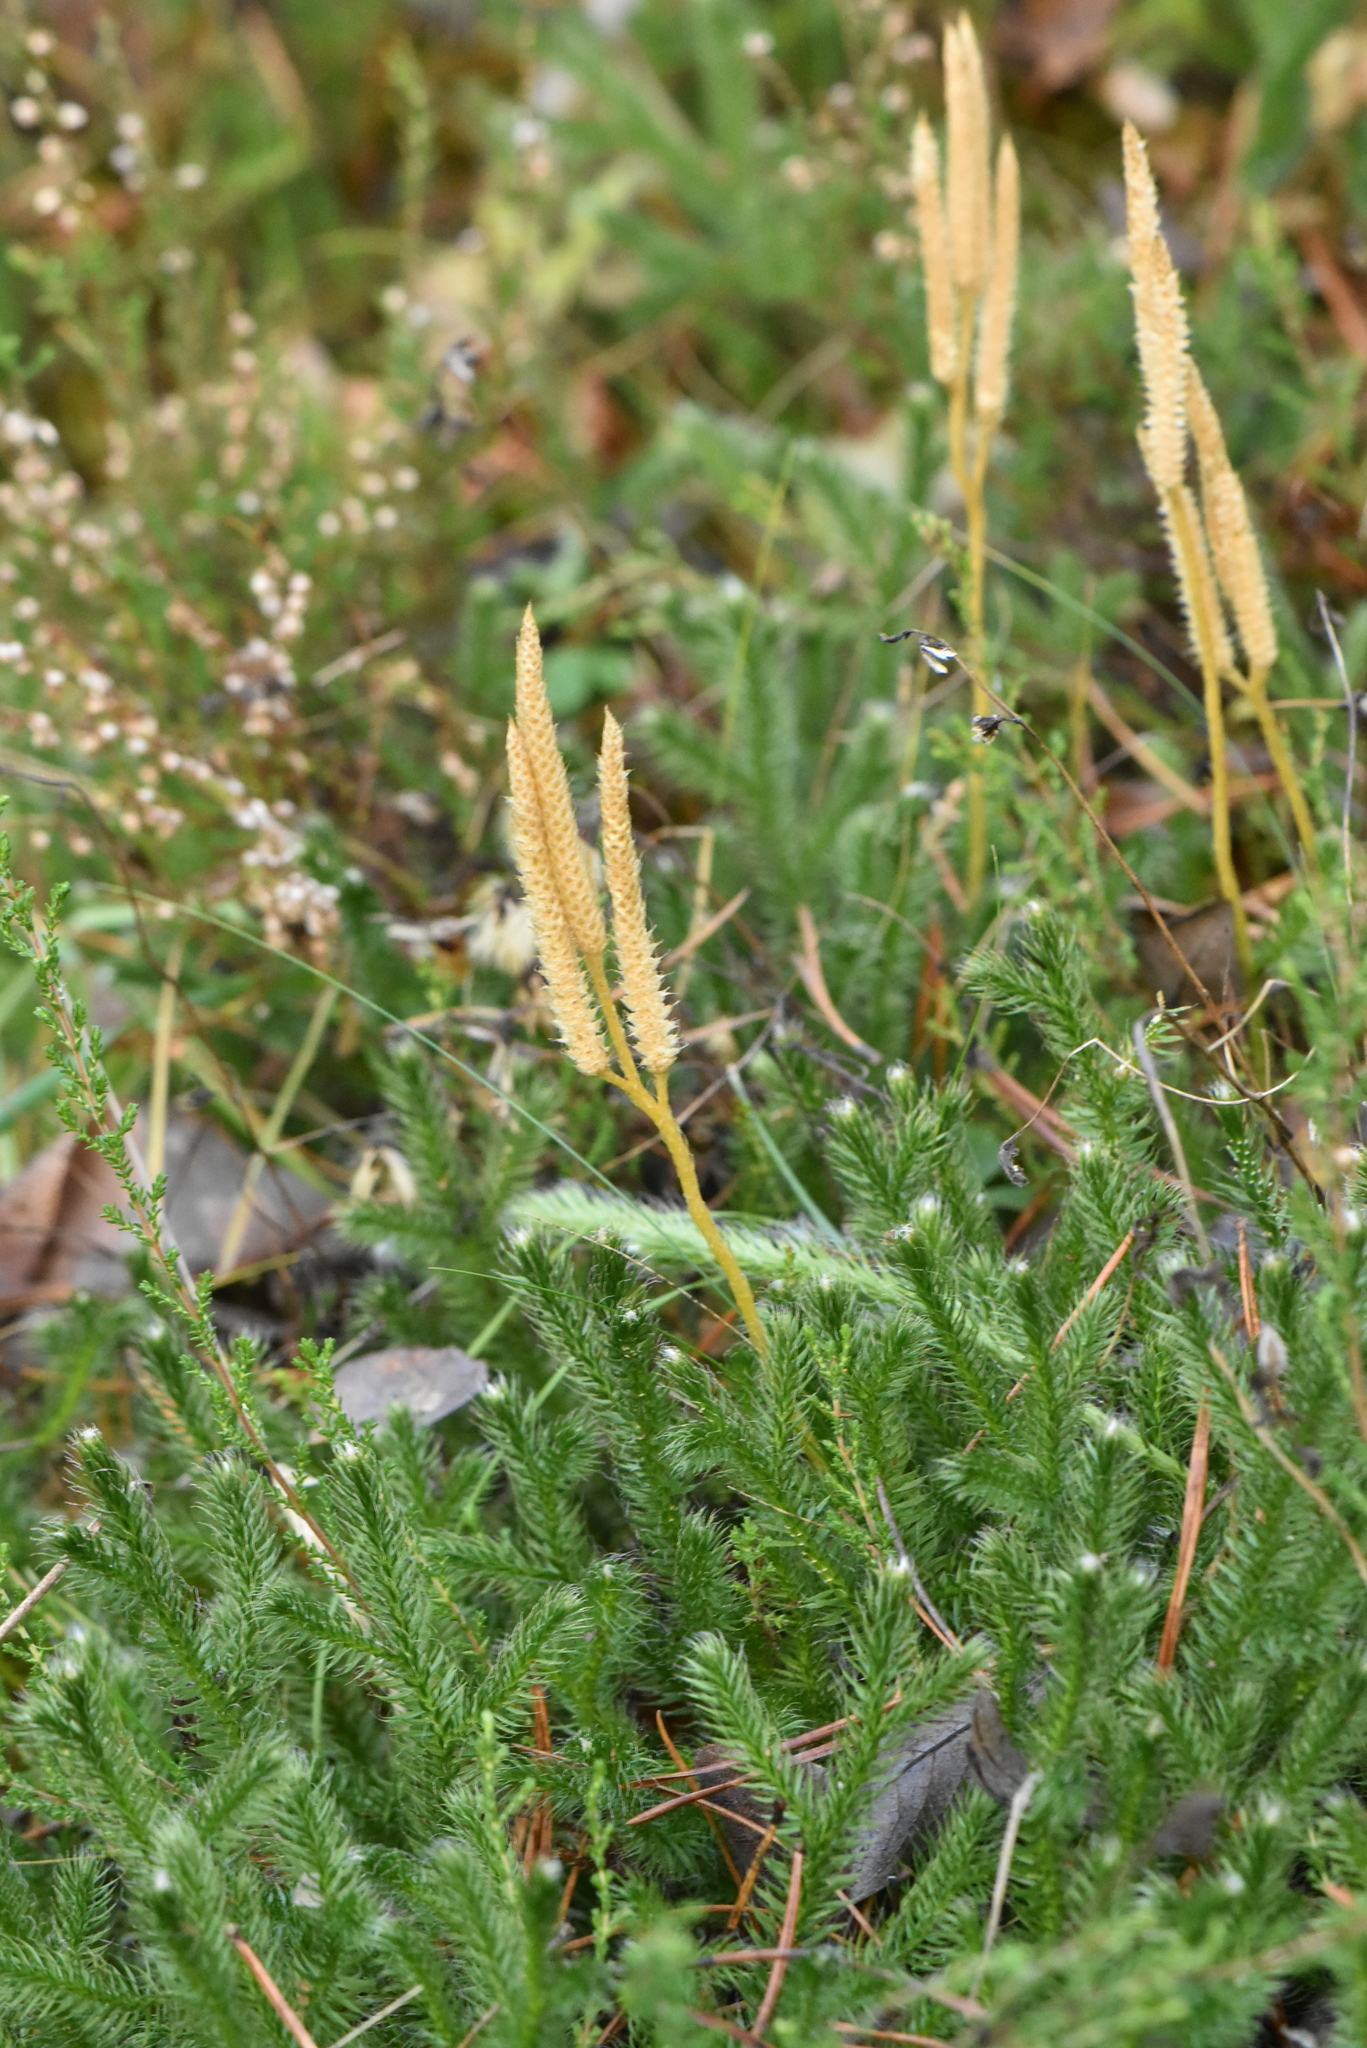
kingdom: Plantae
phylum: Tracheophyta
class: Lycopodiopsida
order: Lycopodiales
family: Lycopodiaceae
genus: Lycopodium
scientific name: Lycopodium clavatum
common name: Stag's-horn clubmoss
